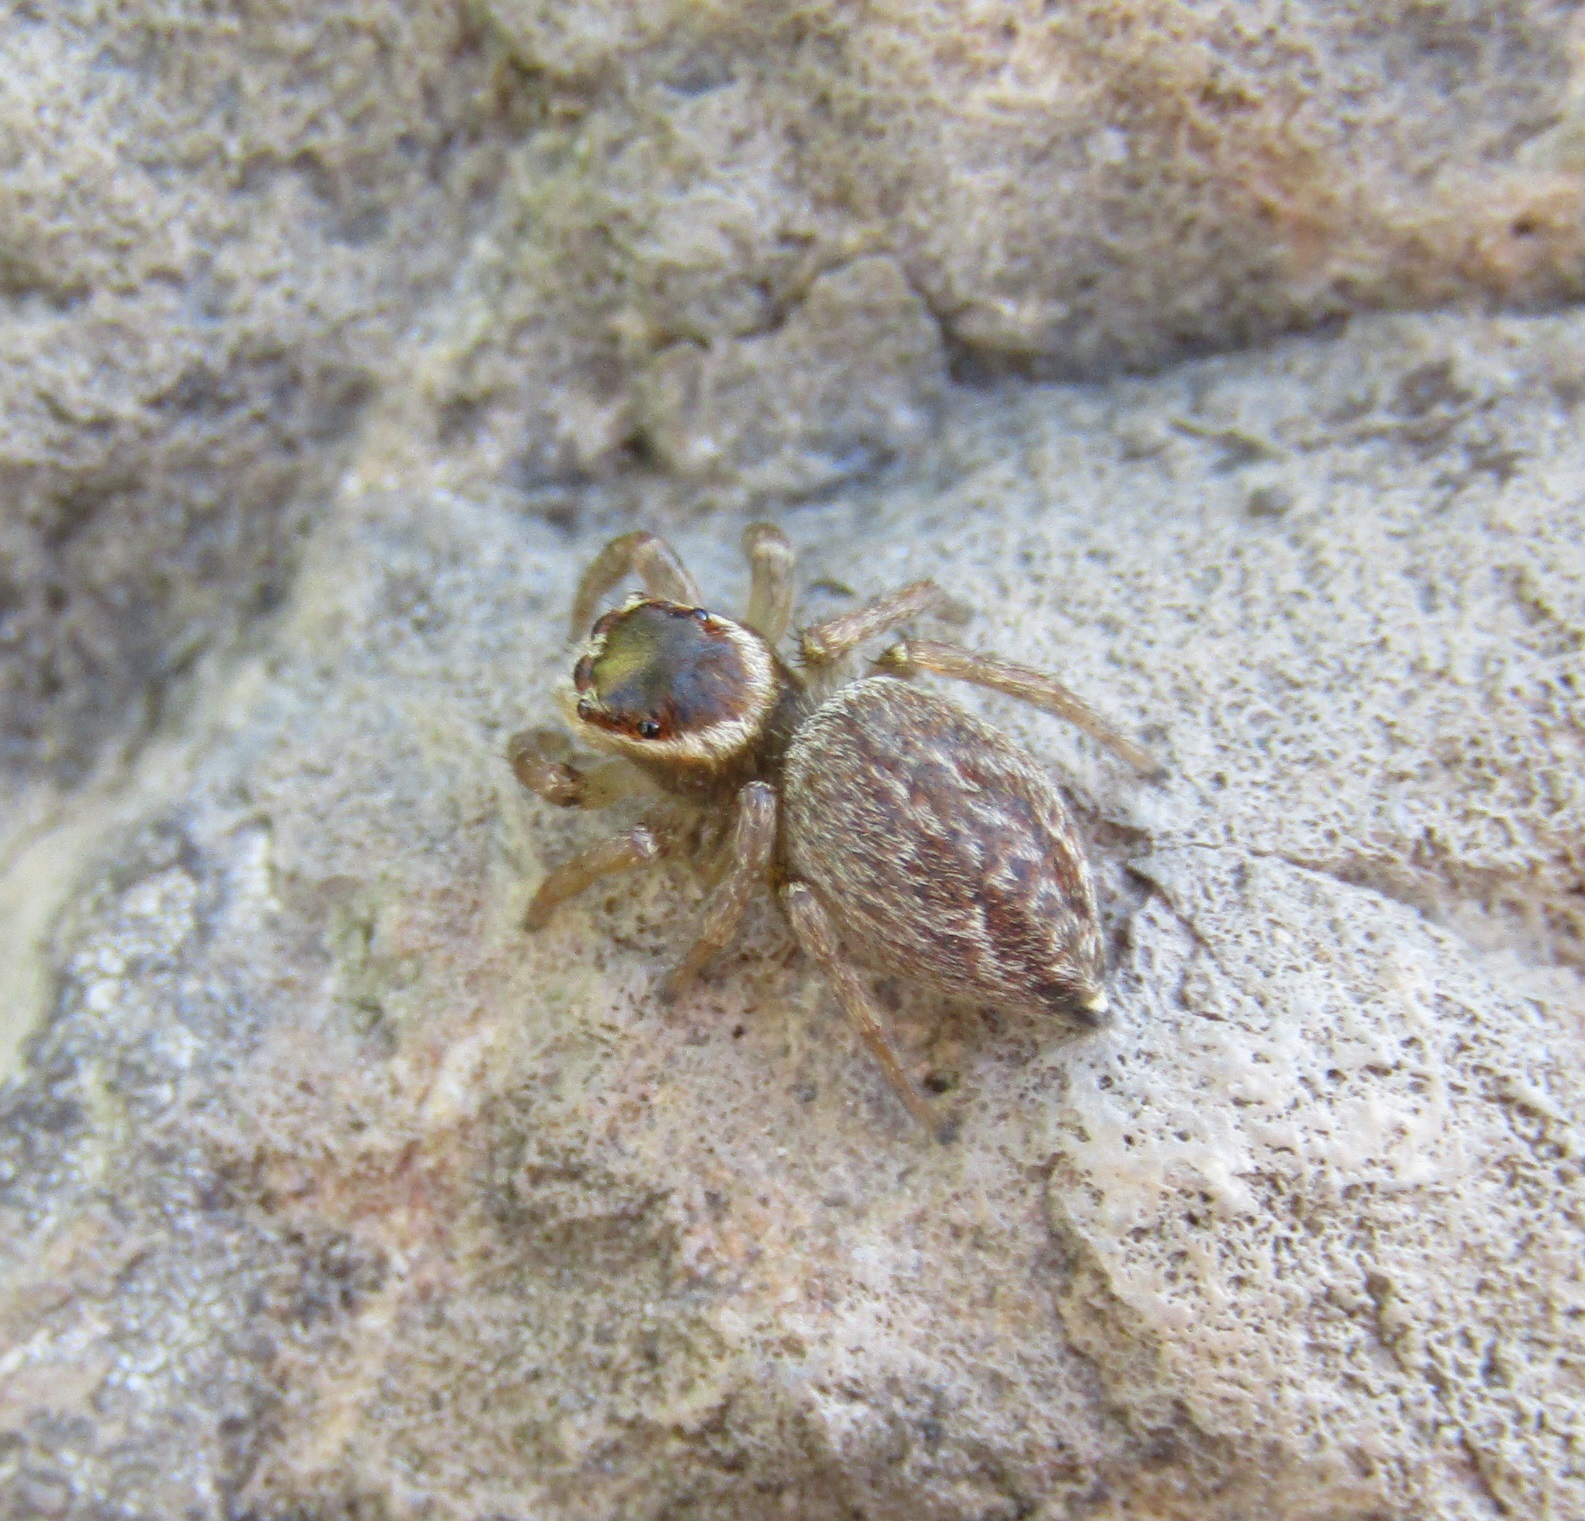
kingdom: Animalia
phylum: Arthropoda
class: Arachnida
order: Araneae
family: Salticidae
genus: Maratus
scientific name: Maratus griseus
